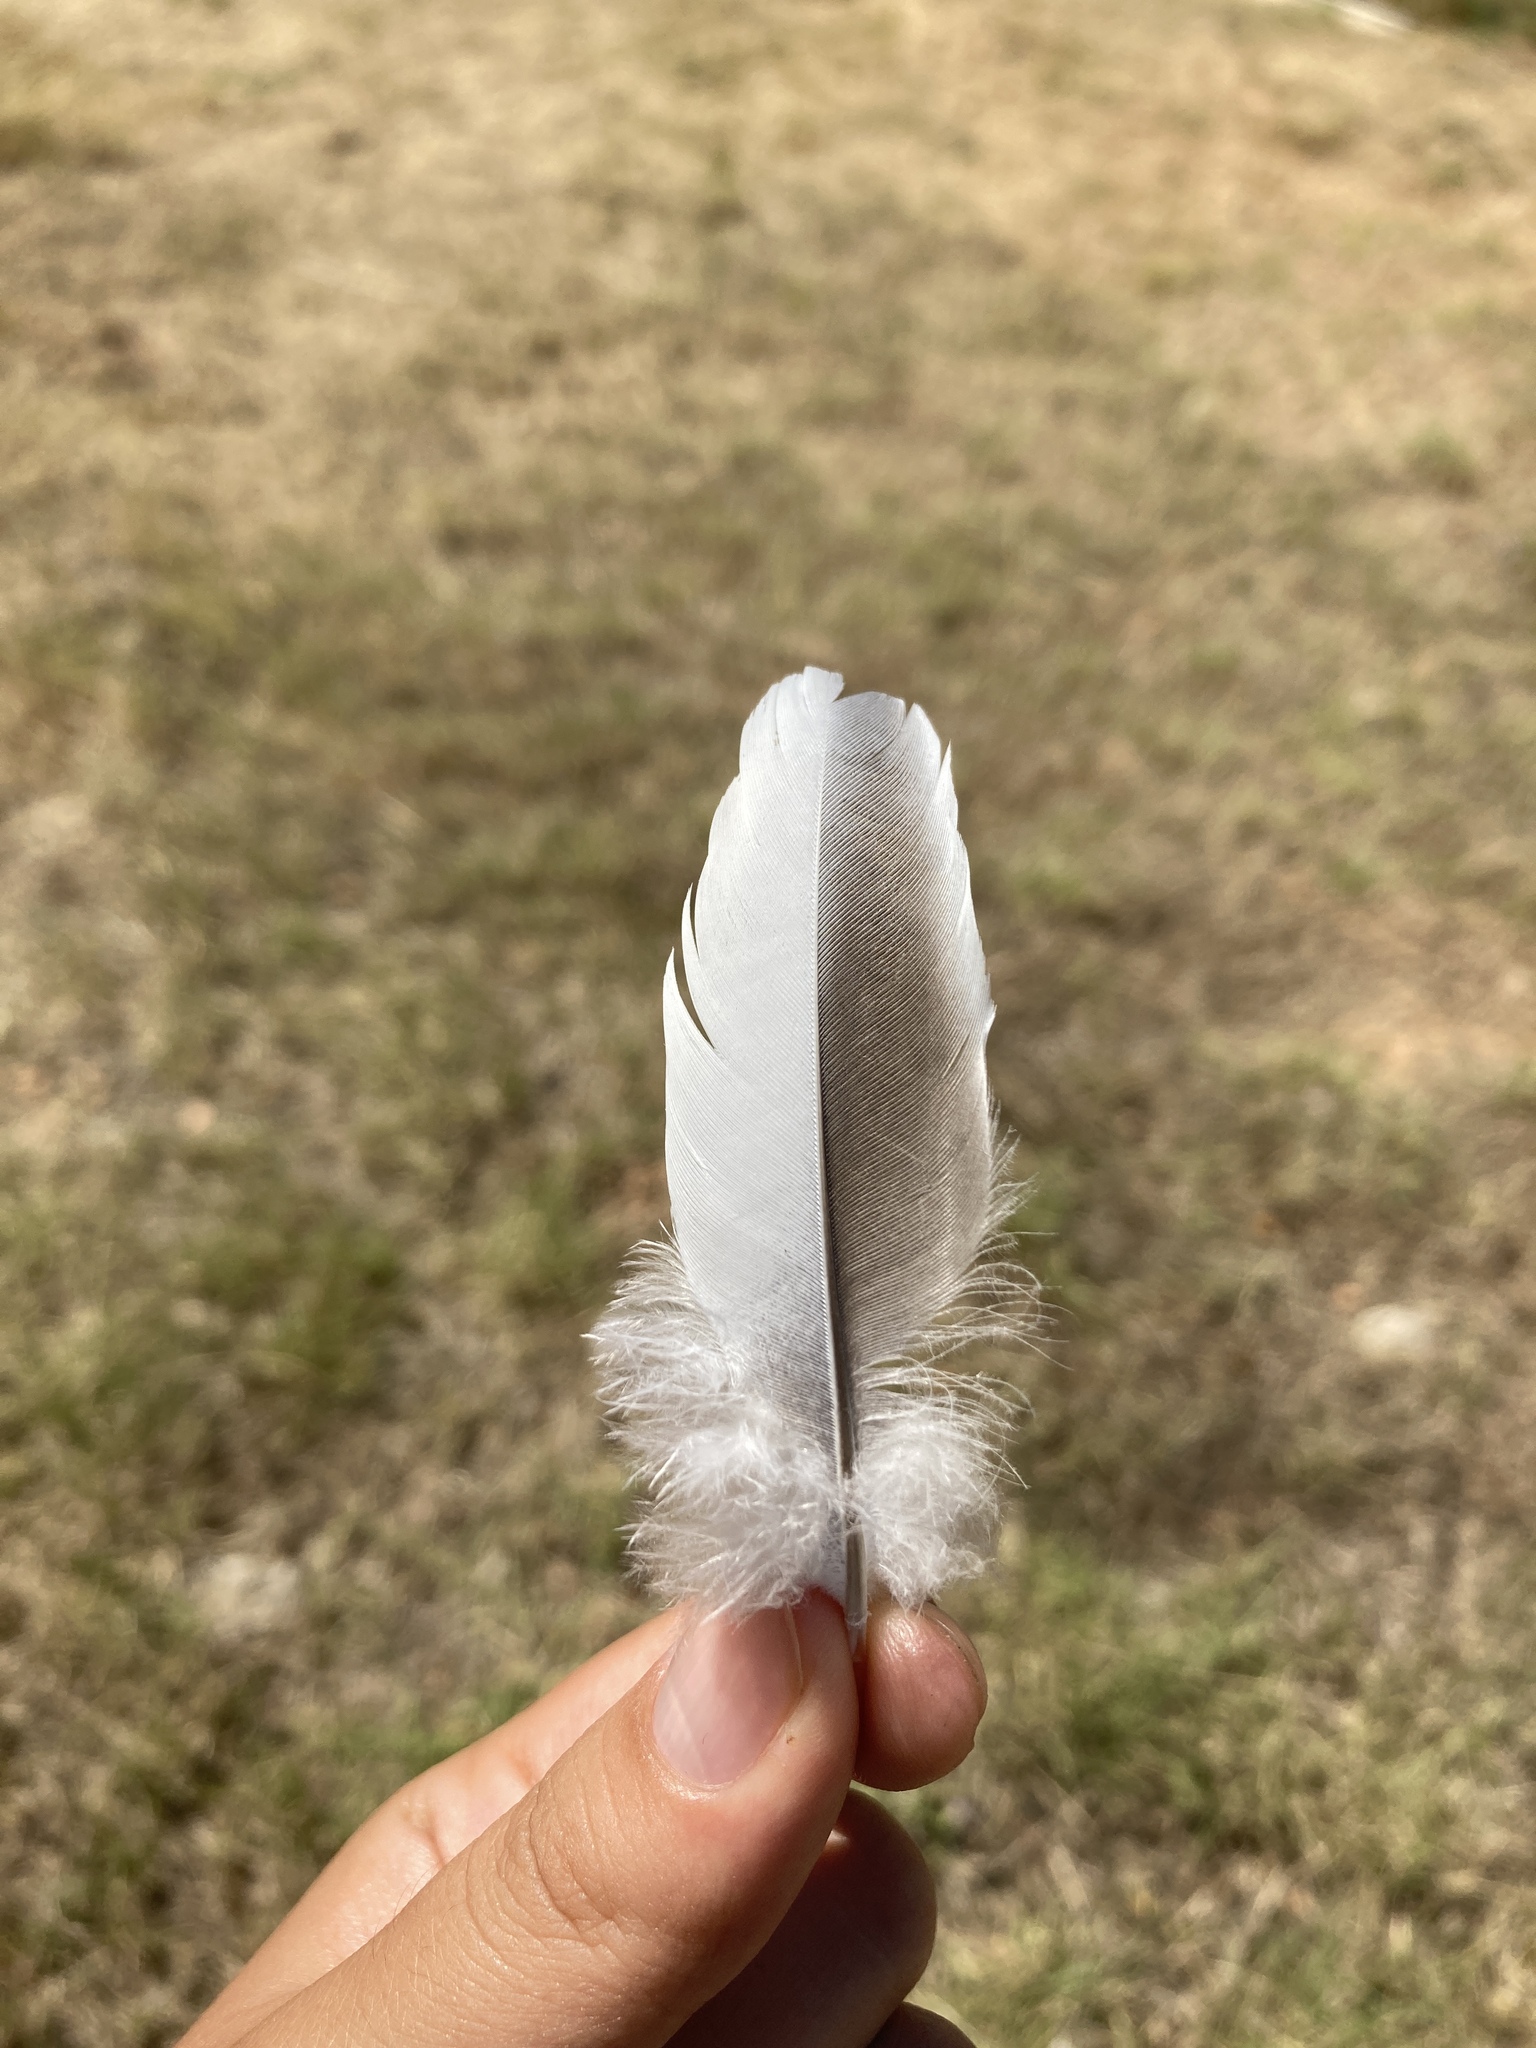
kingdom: Animalia
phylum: Chordata
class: Aves
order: Columbiformes
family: Columbidae
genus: Columba
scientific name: Columba palumbus
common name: Common wood pigeon
